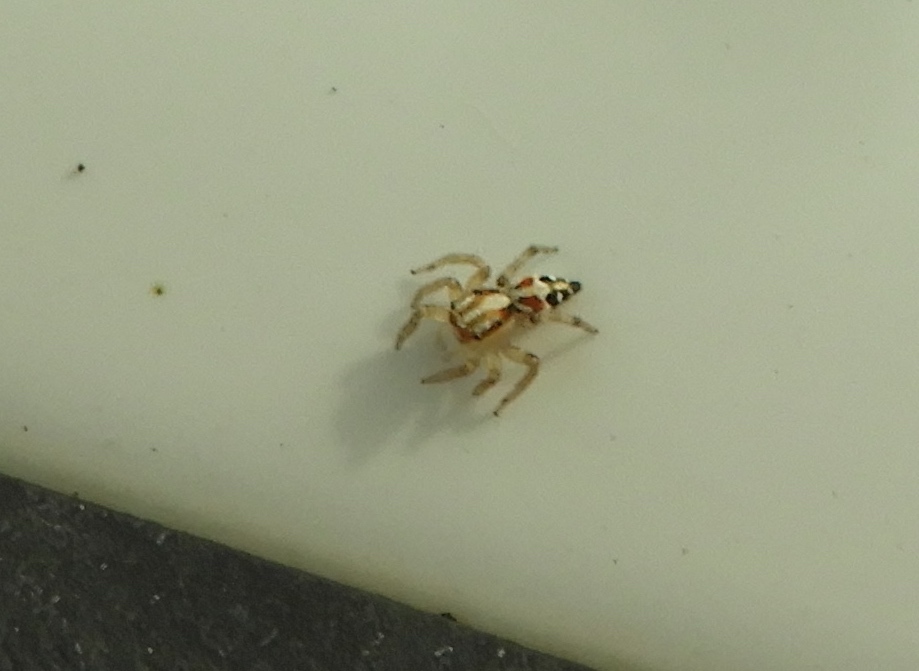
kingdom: Animalia
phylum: Arthropoda
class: Arachnida
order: Araneae
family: Salticidae
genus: Nycerella
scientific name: Nycerella delecta
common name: Jumping spiders
